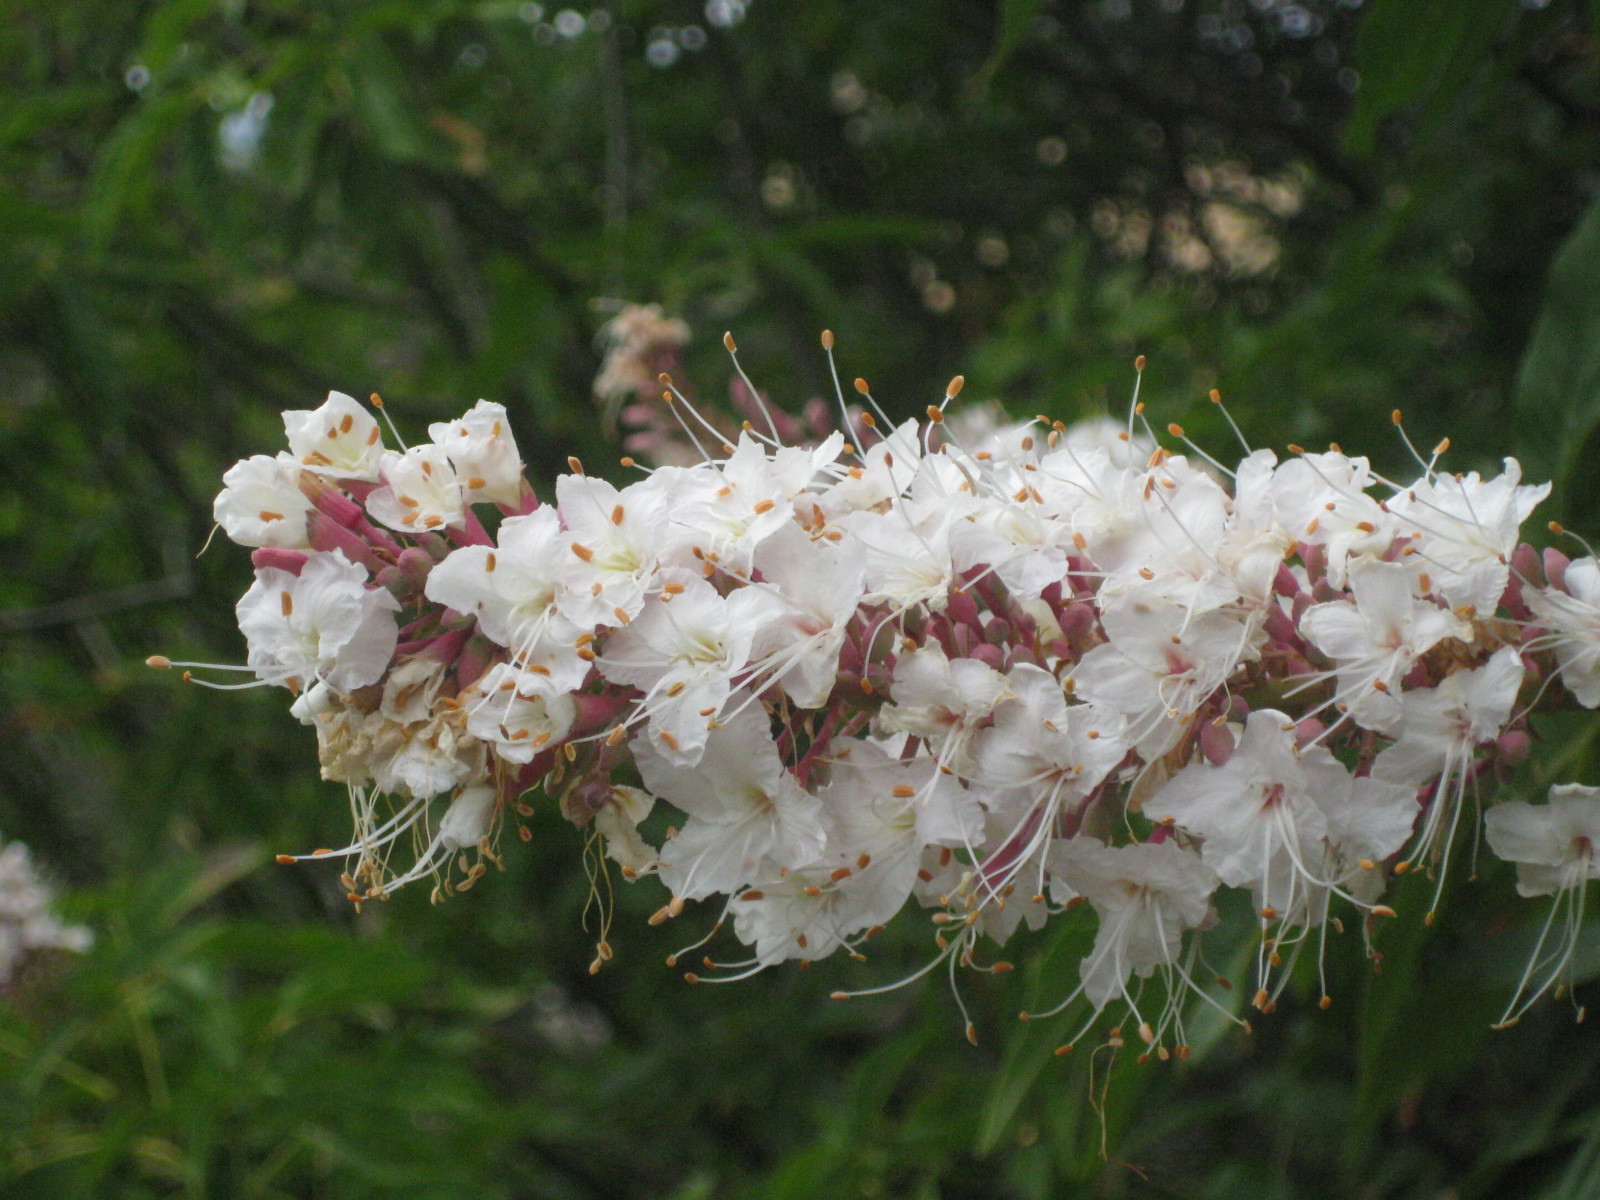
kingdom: Plantae
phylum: Tracheophyta
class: Magnoliopsida
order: Sapindales
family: Sapindaceae
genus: Aesculus
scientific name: Aesculus californica
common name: California buckeye
